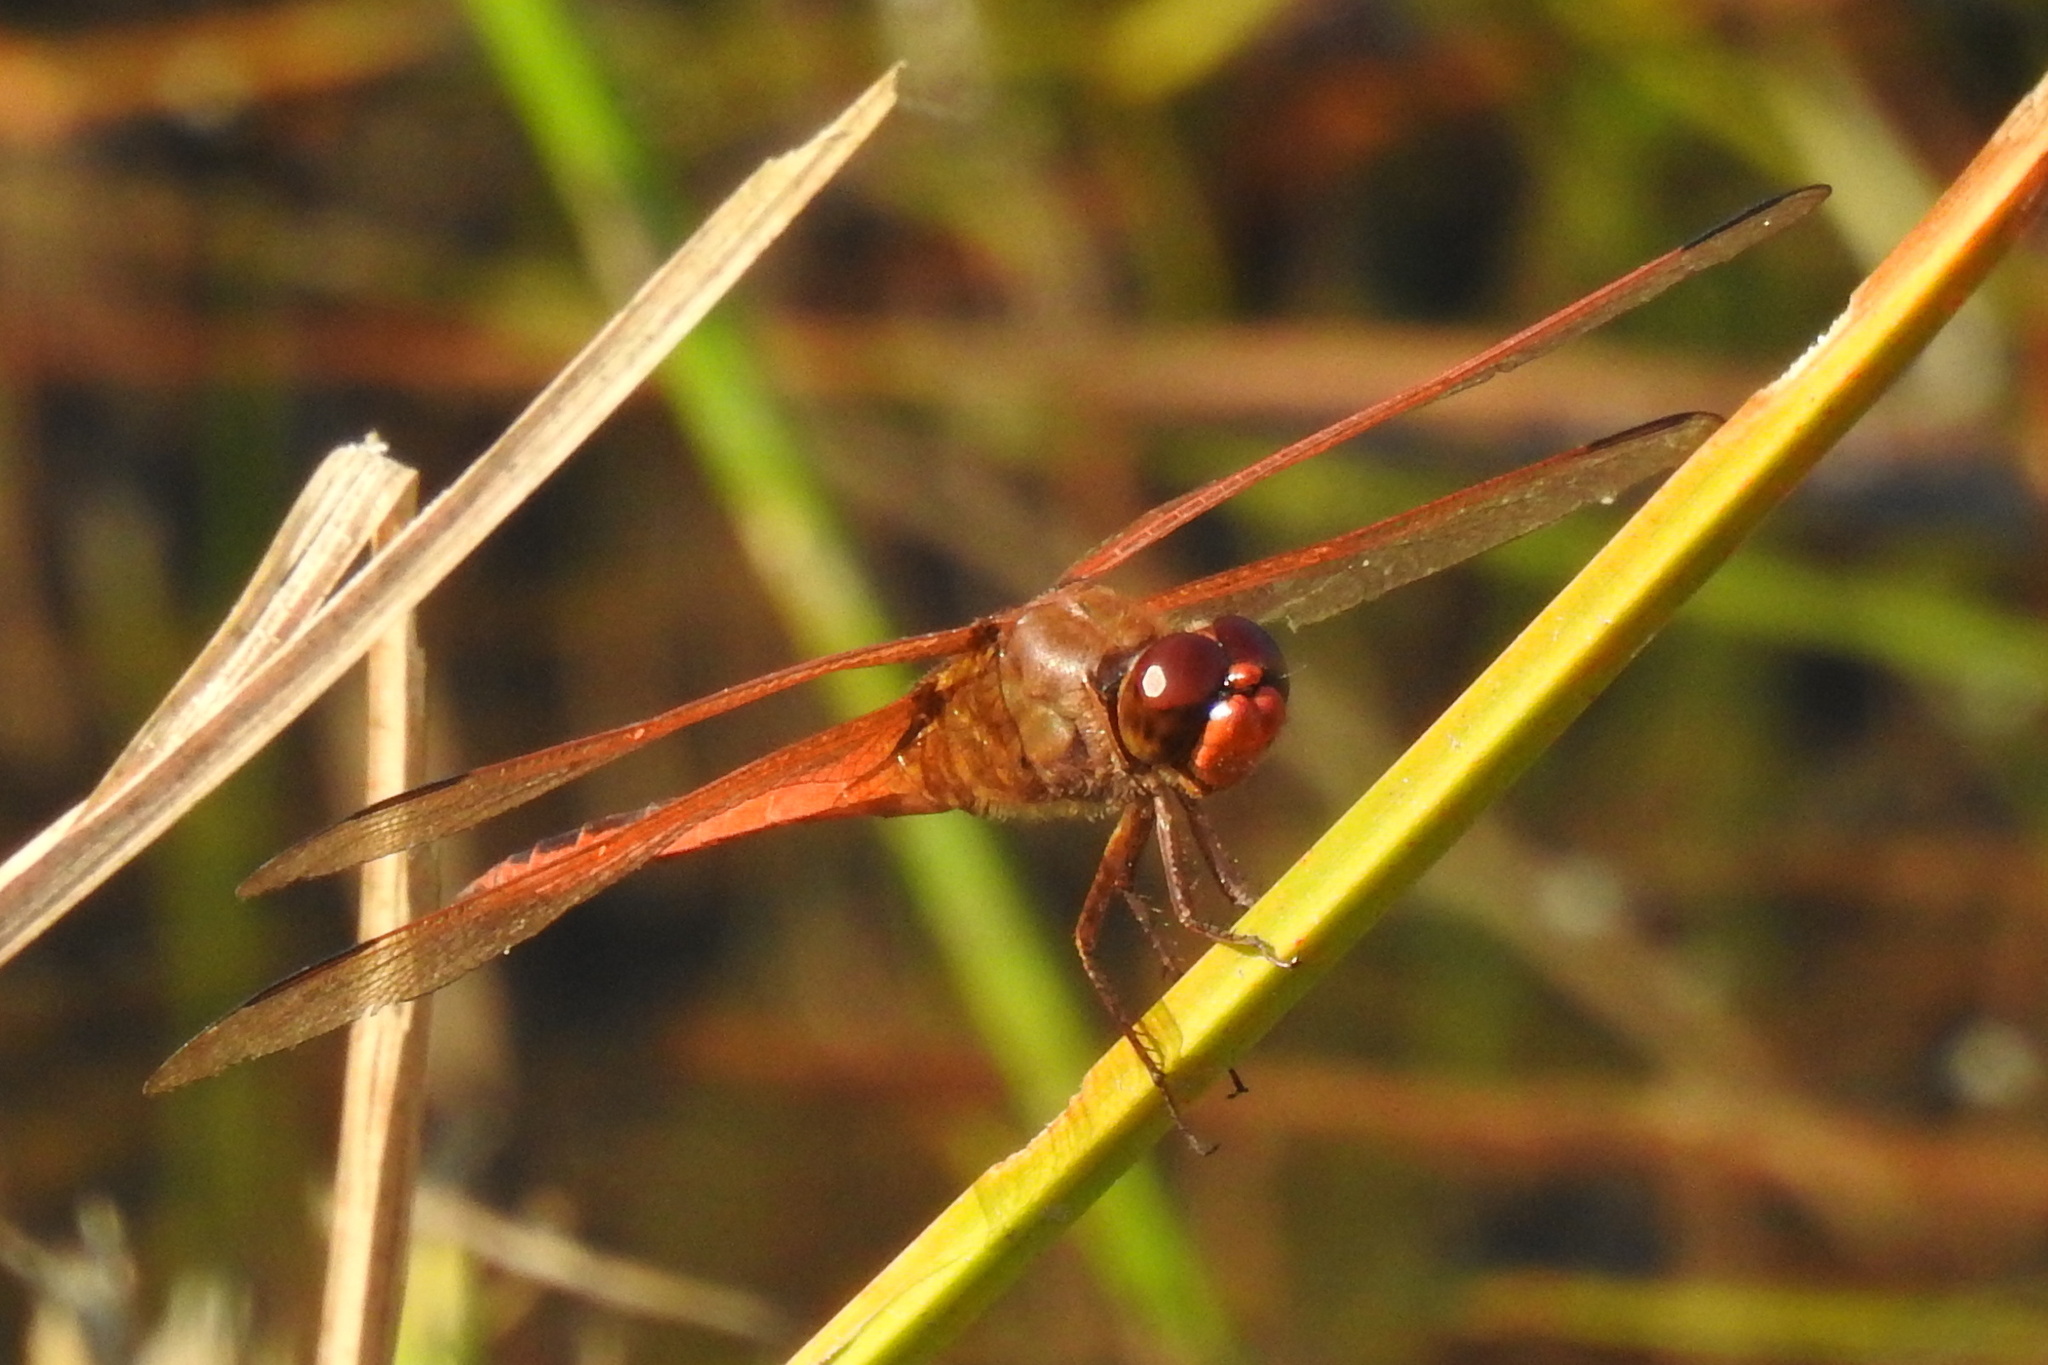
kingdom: Animalia
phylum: Arthropoda
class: Insecta
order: Odonata
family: Libellulidae
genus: Libellula
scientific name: Libellula needhami
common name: Needham's skimmer
